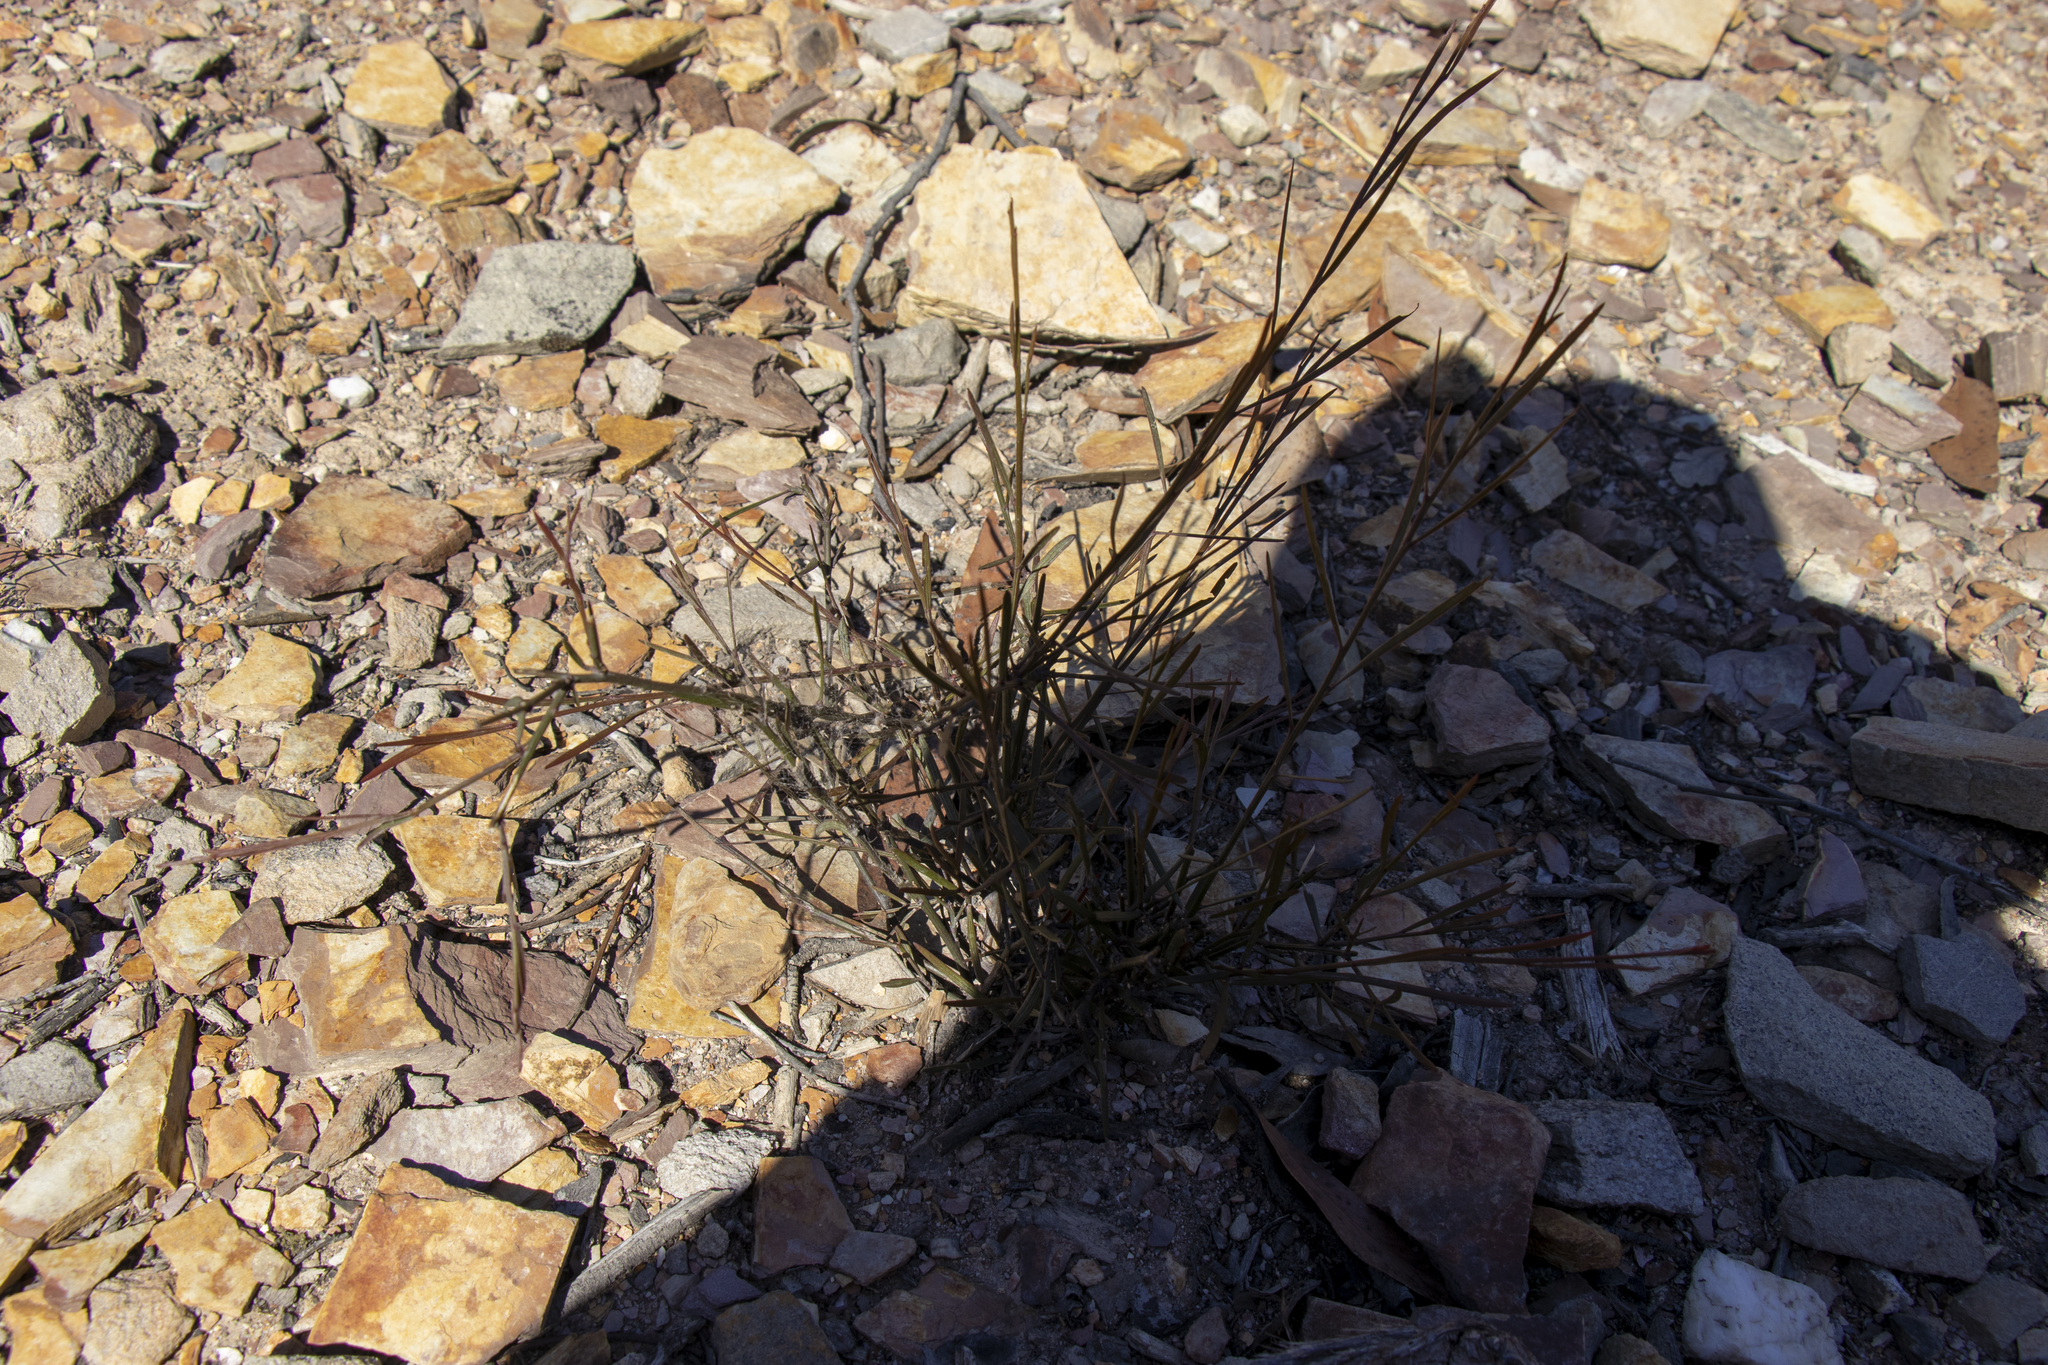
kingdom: Plantae
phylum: Tracheophyta
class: Magnoliopsida
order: Fabales
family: Fabaceae
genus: Daviesia
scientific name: Daviesia leptophylla
